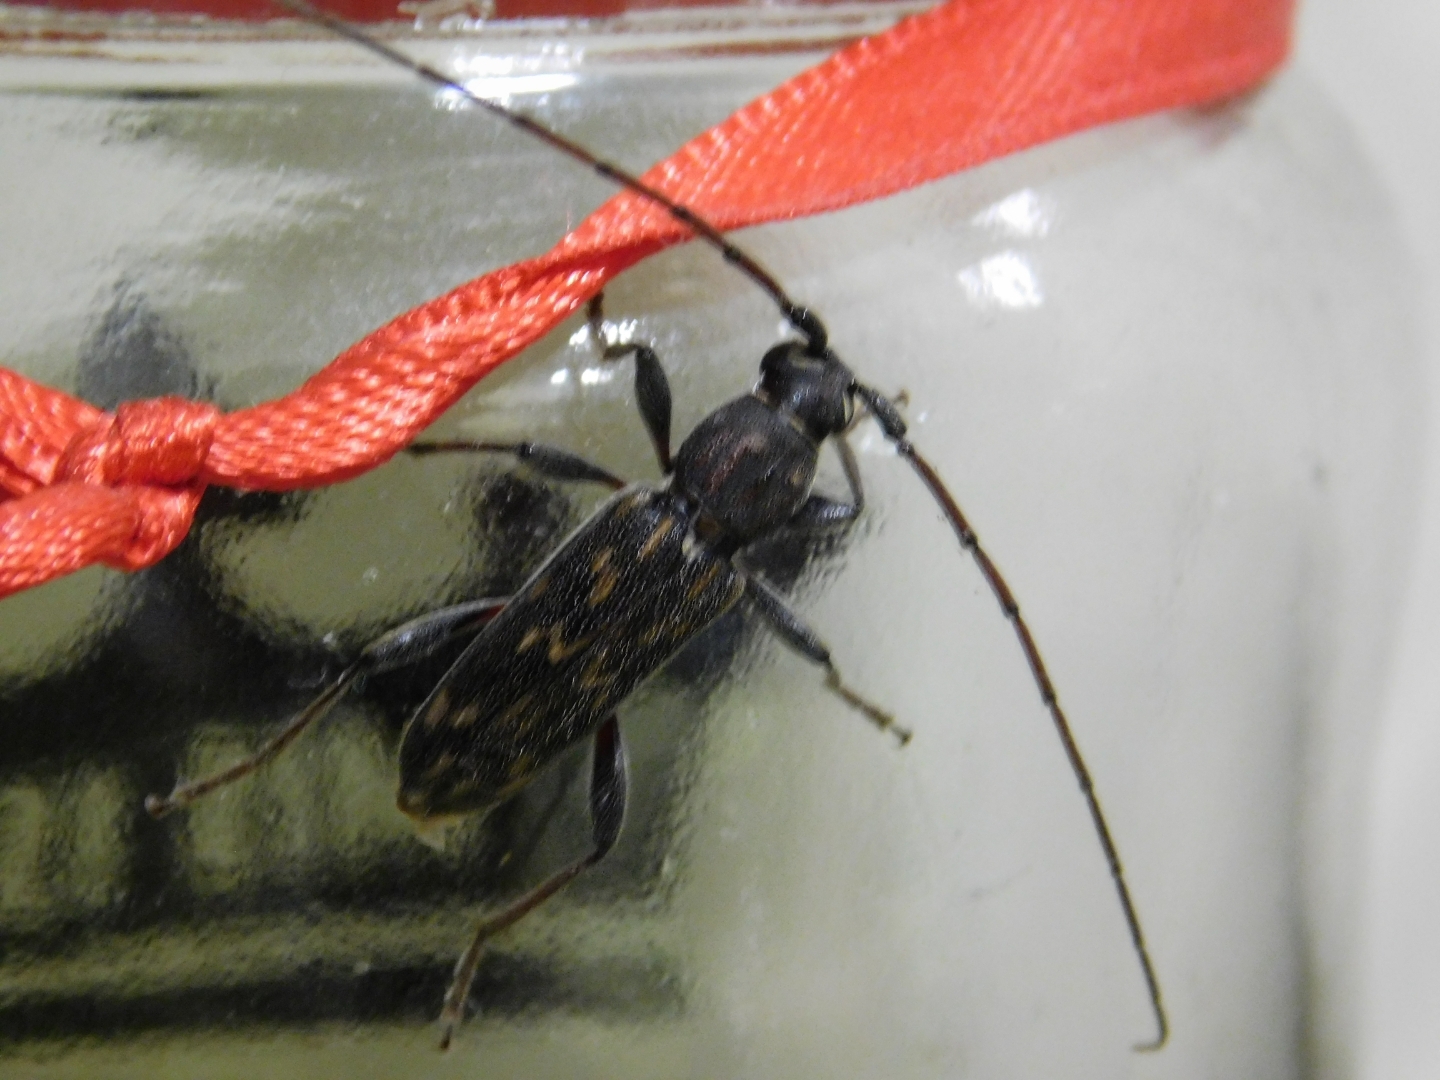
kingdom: Animalia
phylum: Arthropoda
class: Insecta
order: Coleoptera
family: Cerambycidae
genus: Achryson
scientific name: Achryson undulatum
